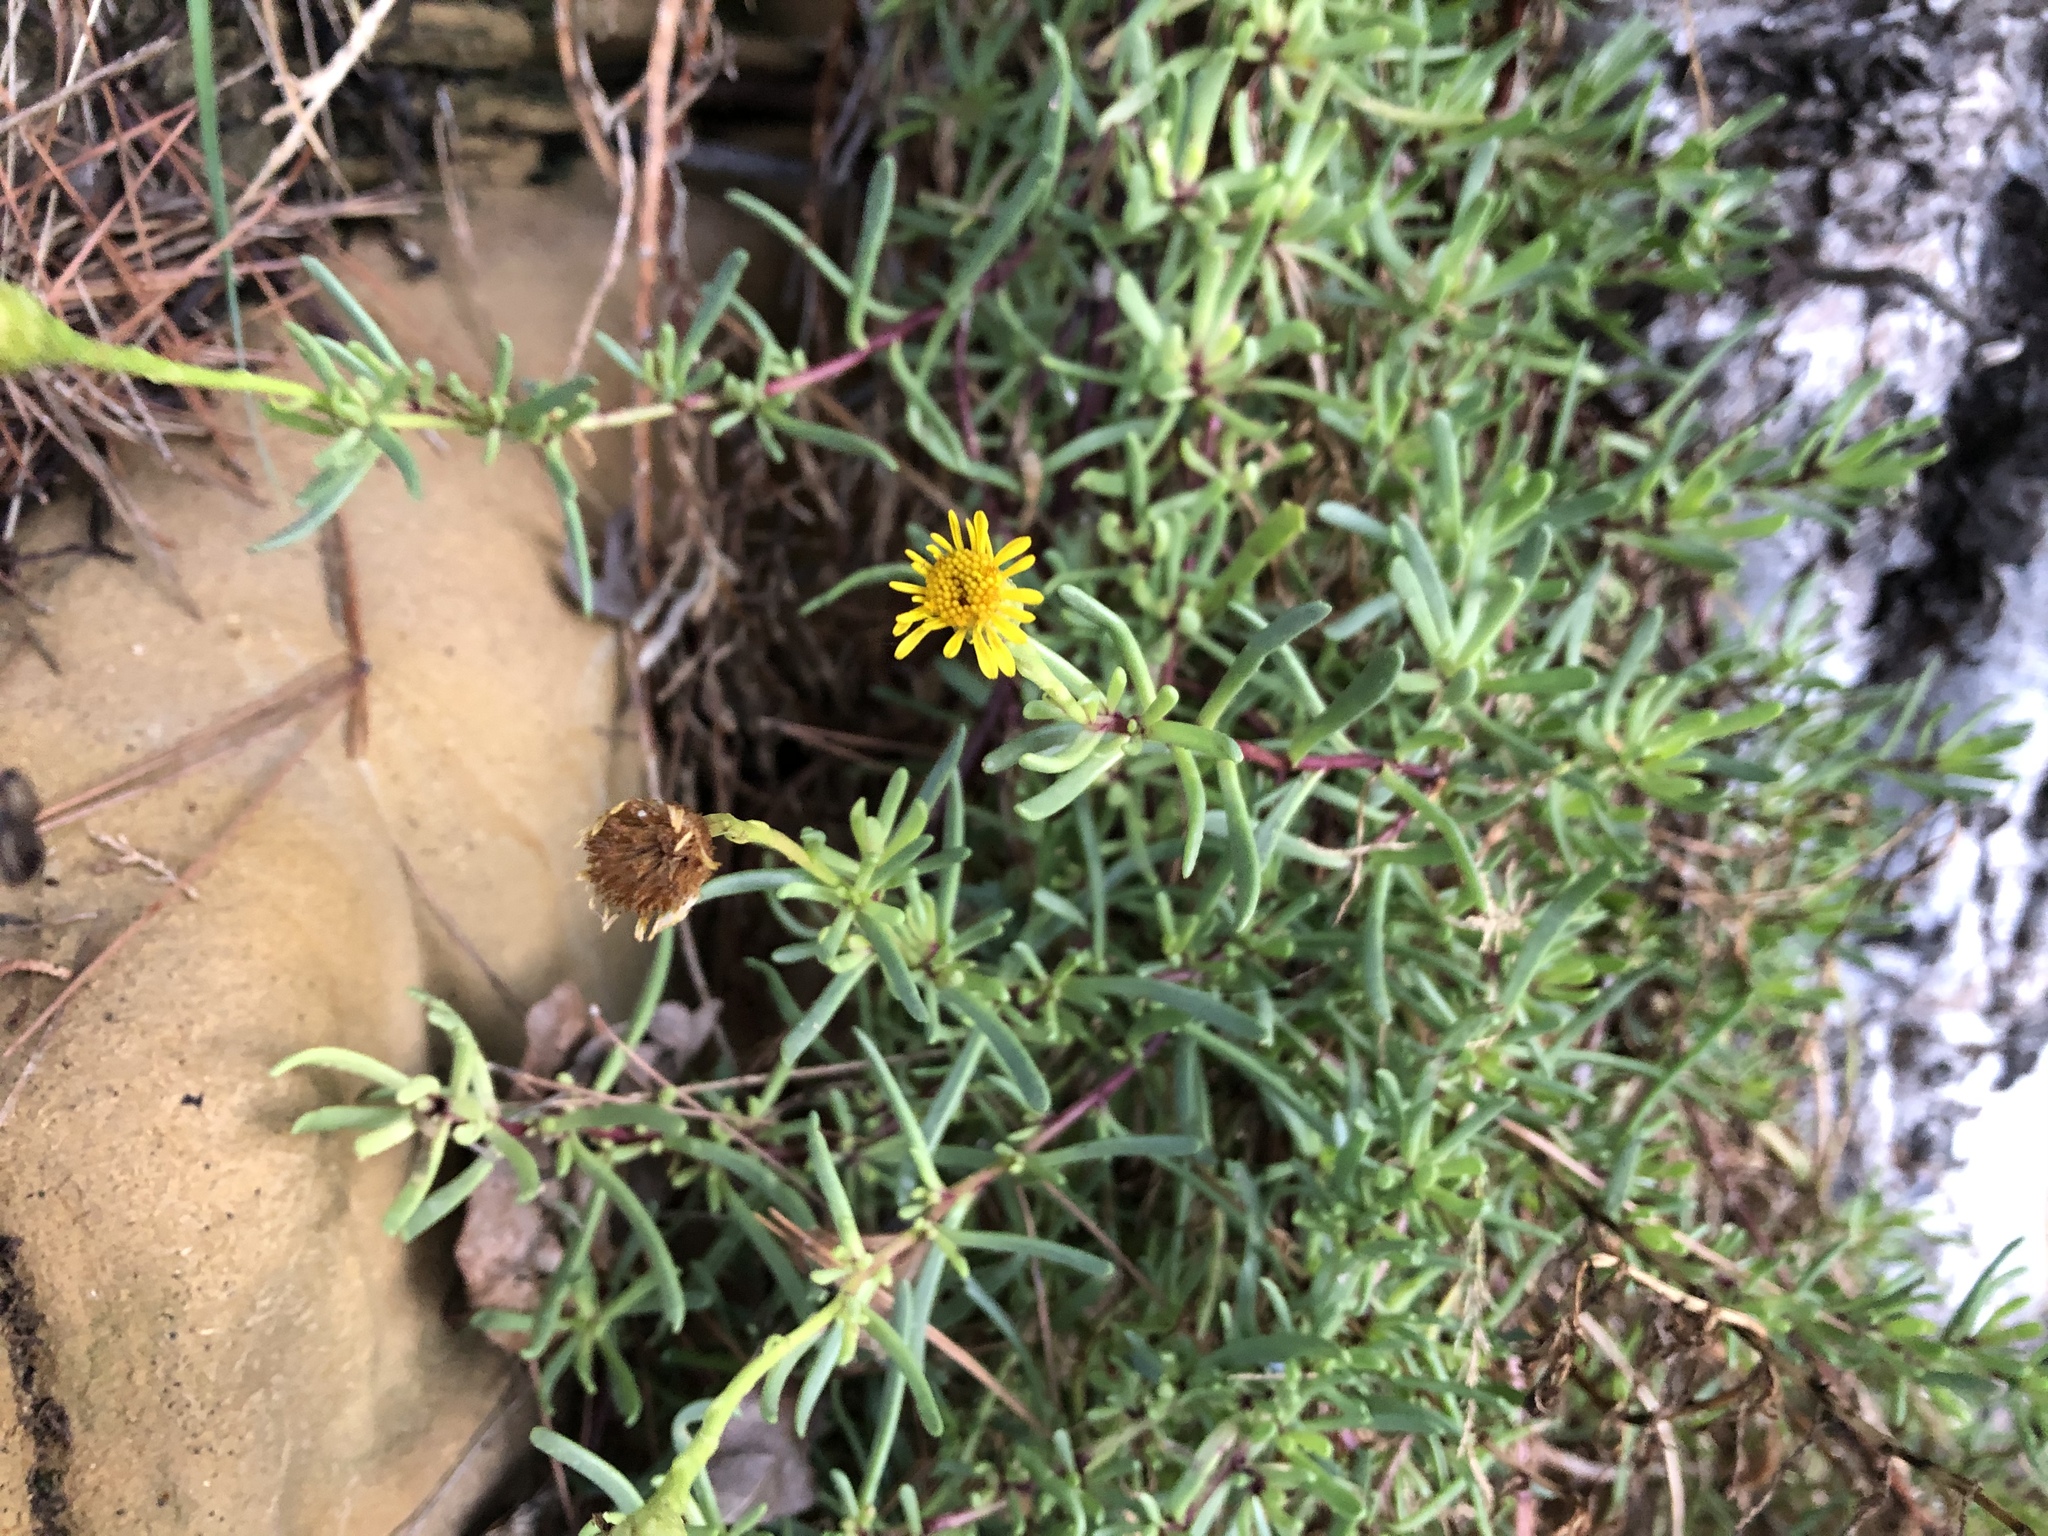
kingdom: Plantae
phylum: Tracheophyta
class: Magnoliopsida
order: Asterales
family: Asteraceae
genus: Limbarda
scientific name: Limbarda crithmoides
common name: Golden samphire
